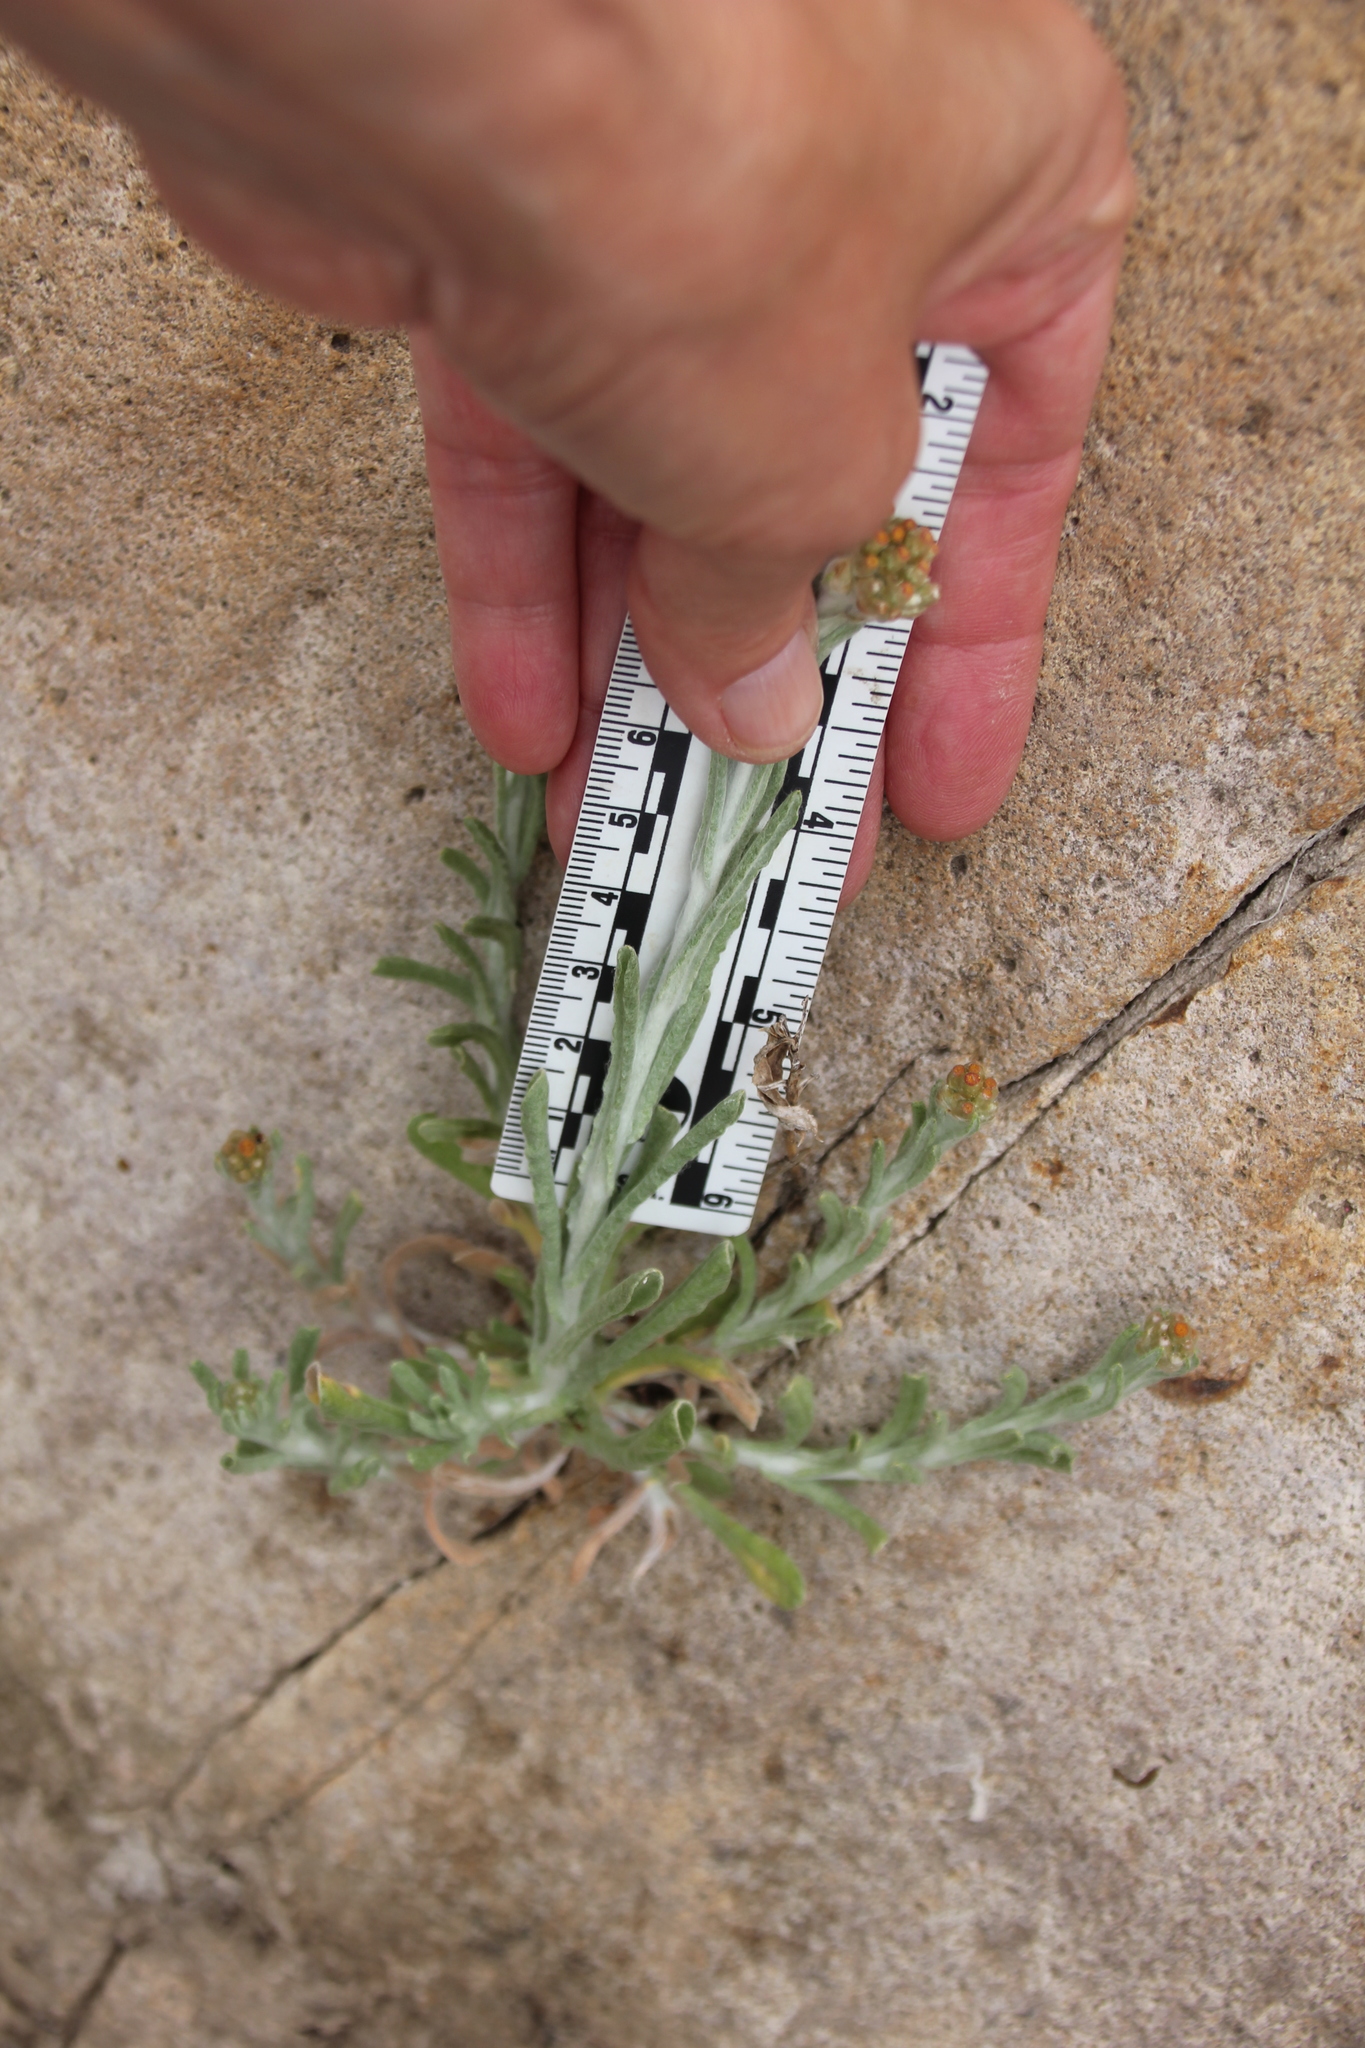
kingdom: Plantae
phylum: Tracheophyta
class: Magnoliopsida
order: Asterales
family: Asteraceae
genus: Helichrysum
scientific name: Helichrysum luteoalbum
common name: Daisy
